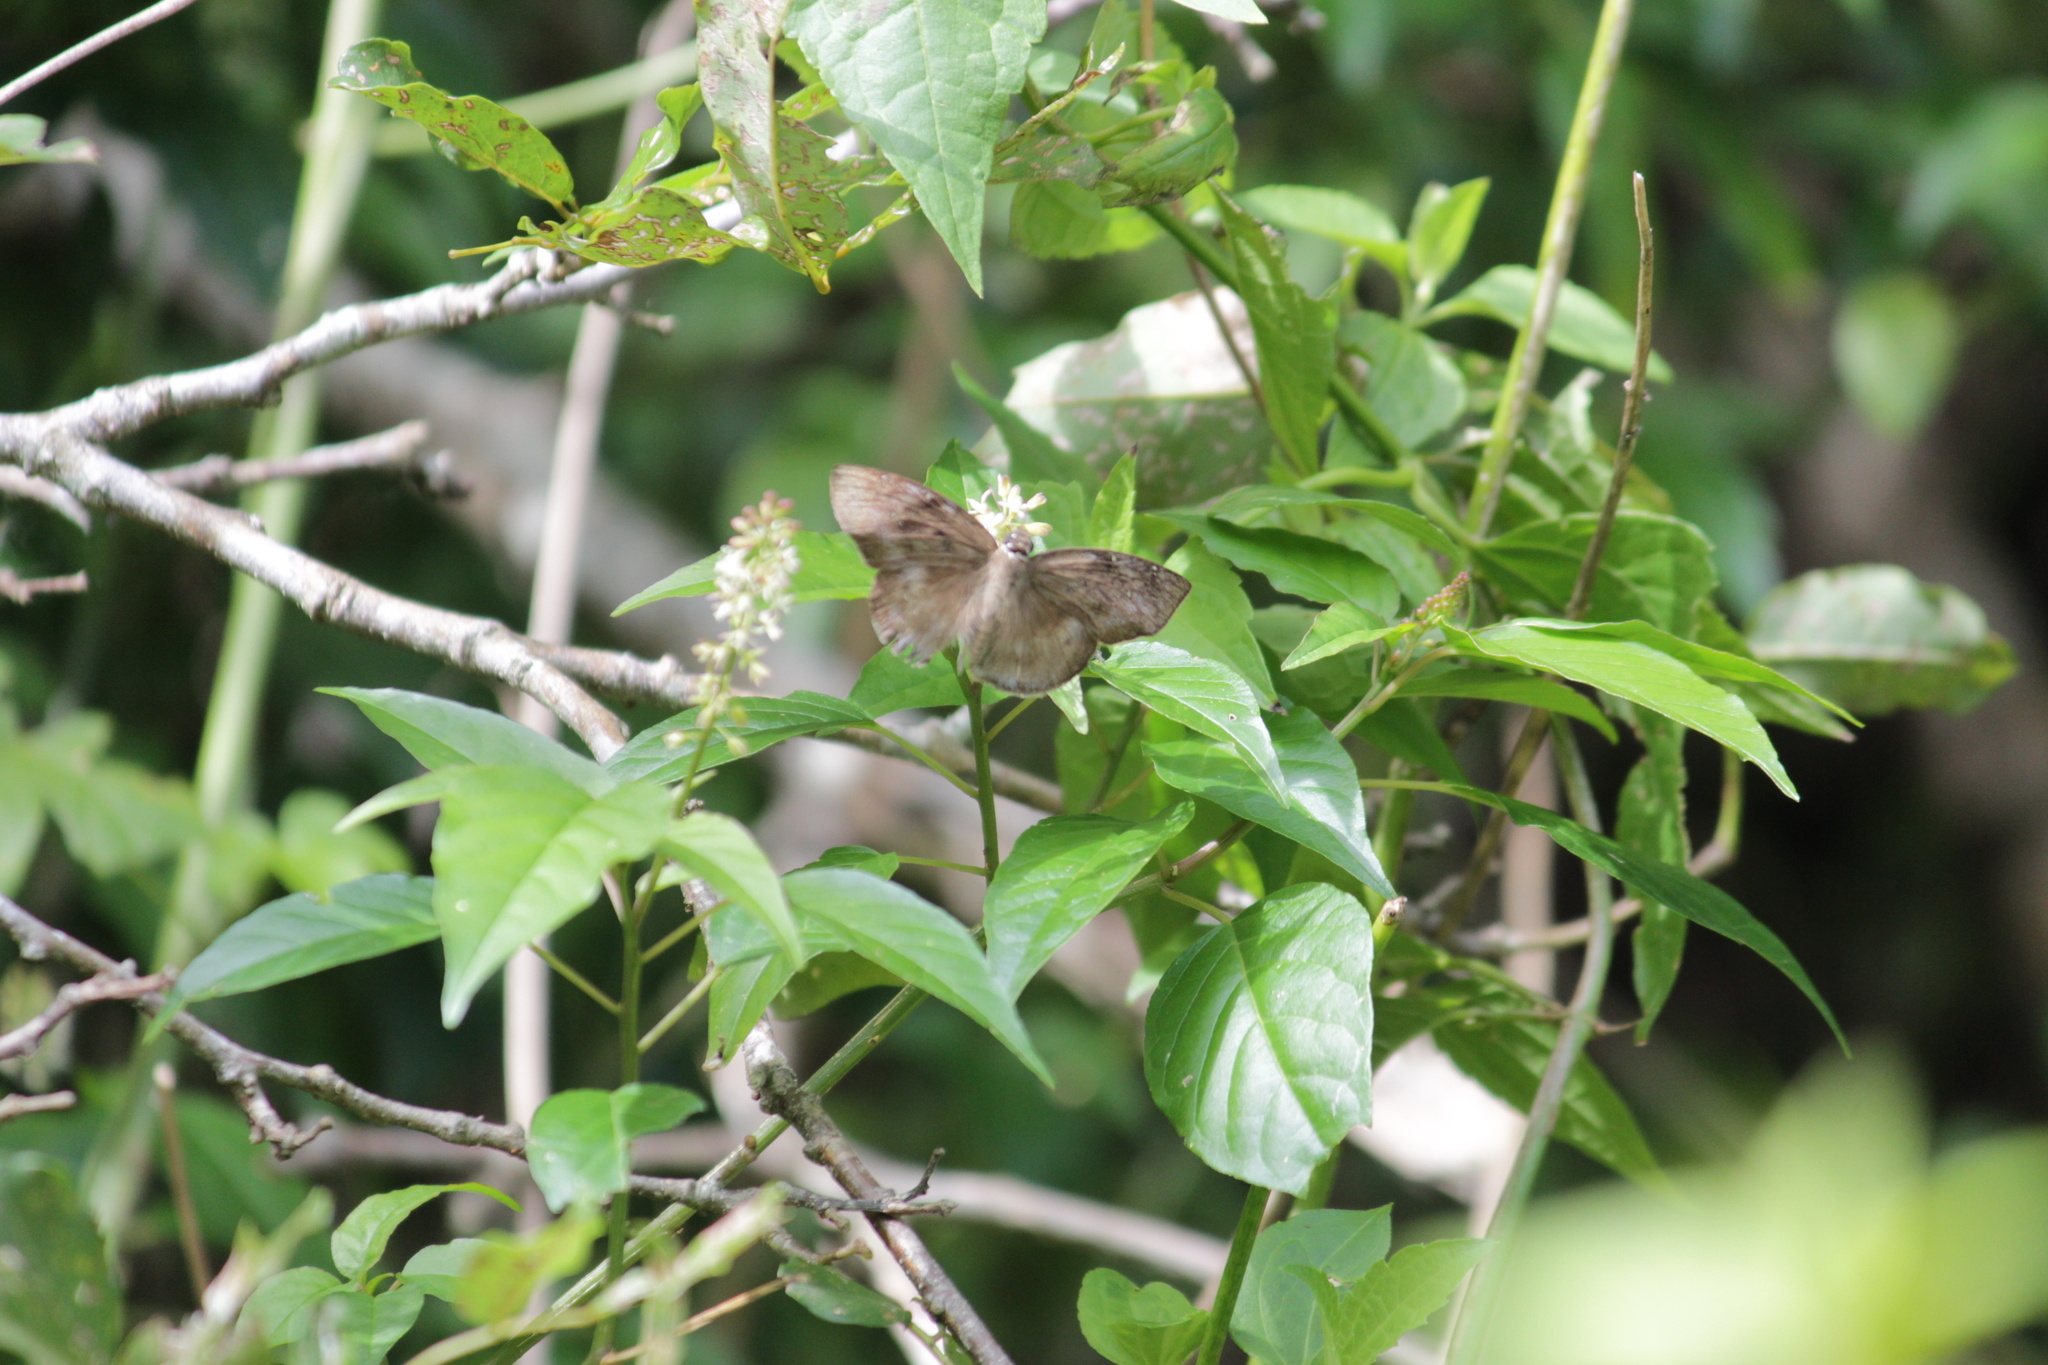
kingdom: Animalia
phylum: Arthropoda
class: Insecta
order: Lepidoptera
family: Hesperiidae
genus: Tagiades
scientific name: Tagiades flesus
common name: Clouded flat
